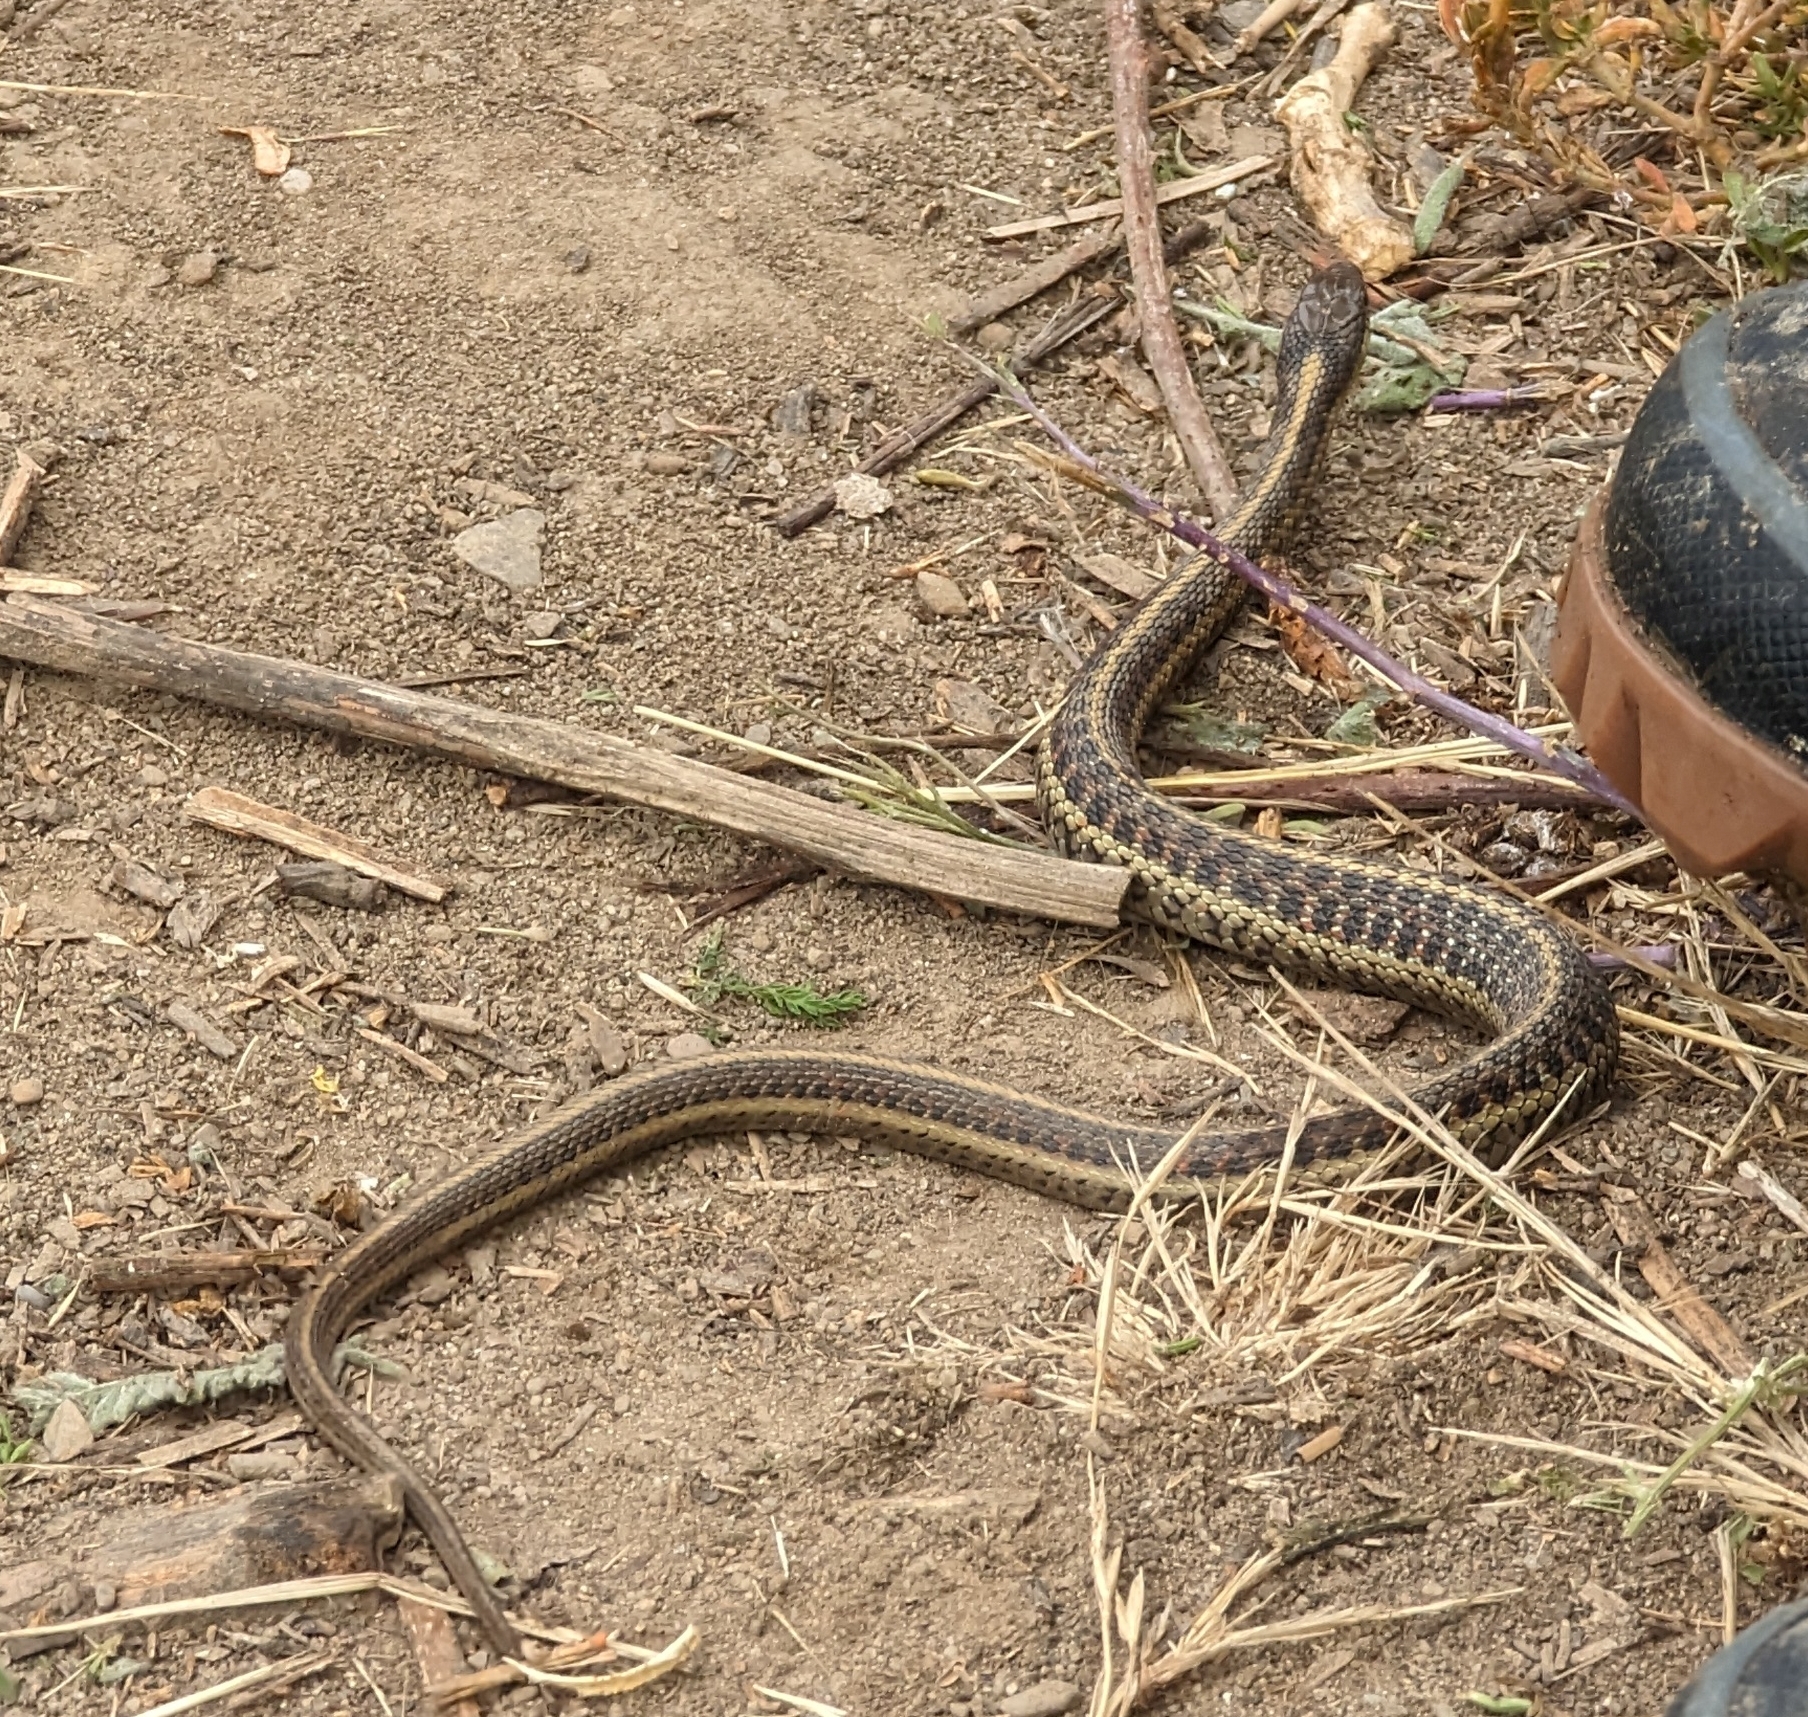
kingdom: Animalia
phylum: Chordata
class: Squamata
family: Colubridae
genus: Thamnophis
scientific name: Thamnophis elegans
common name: Western terrestrial garter snake
